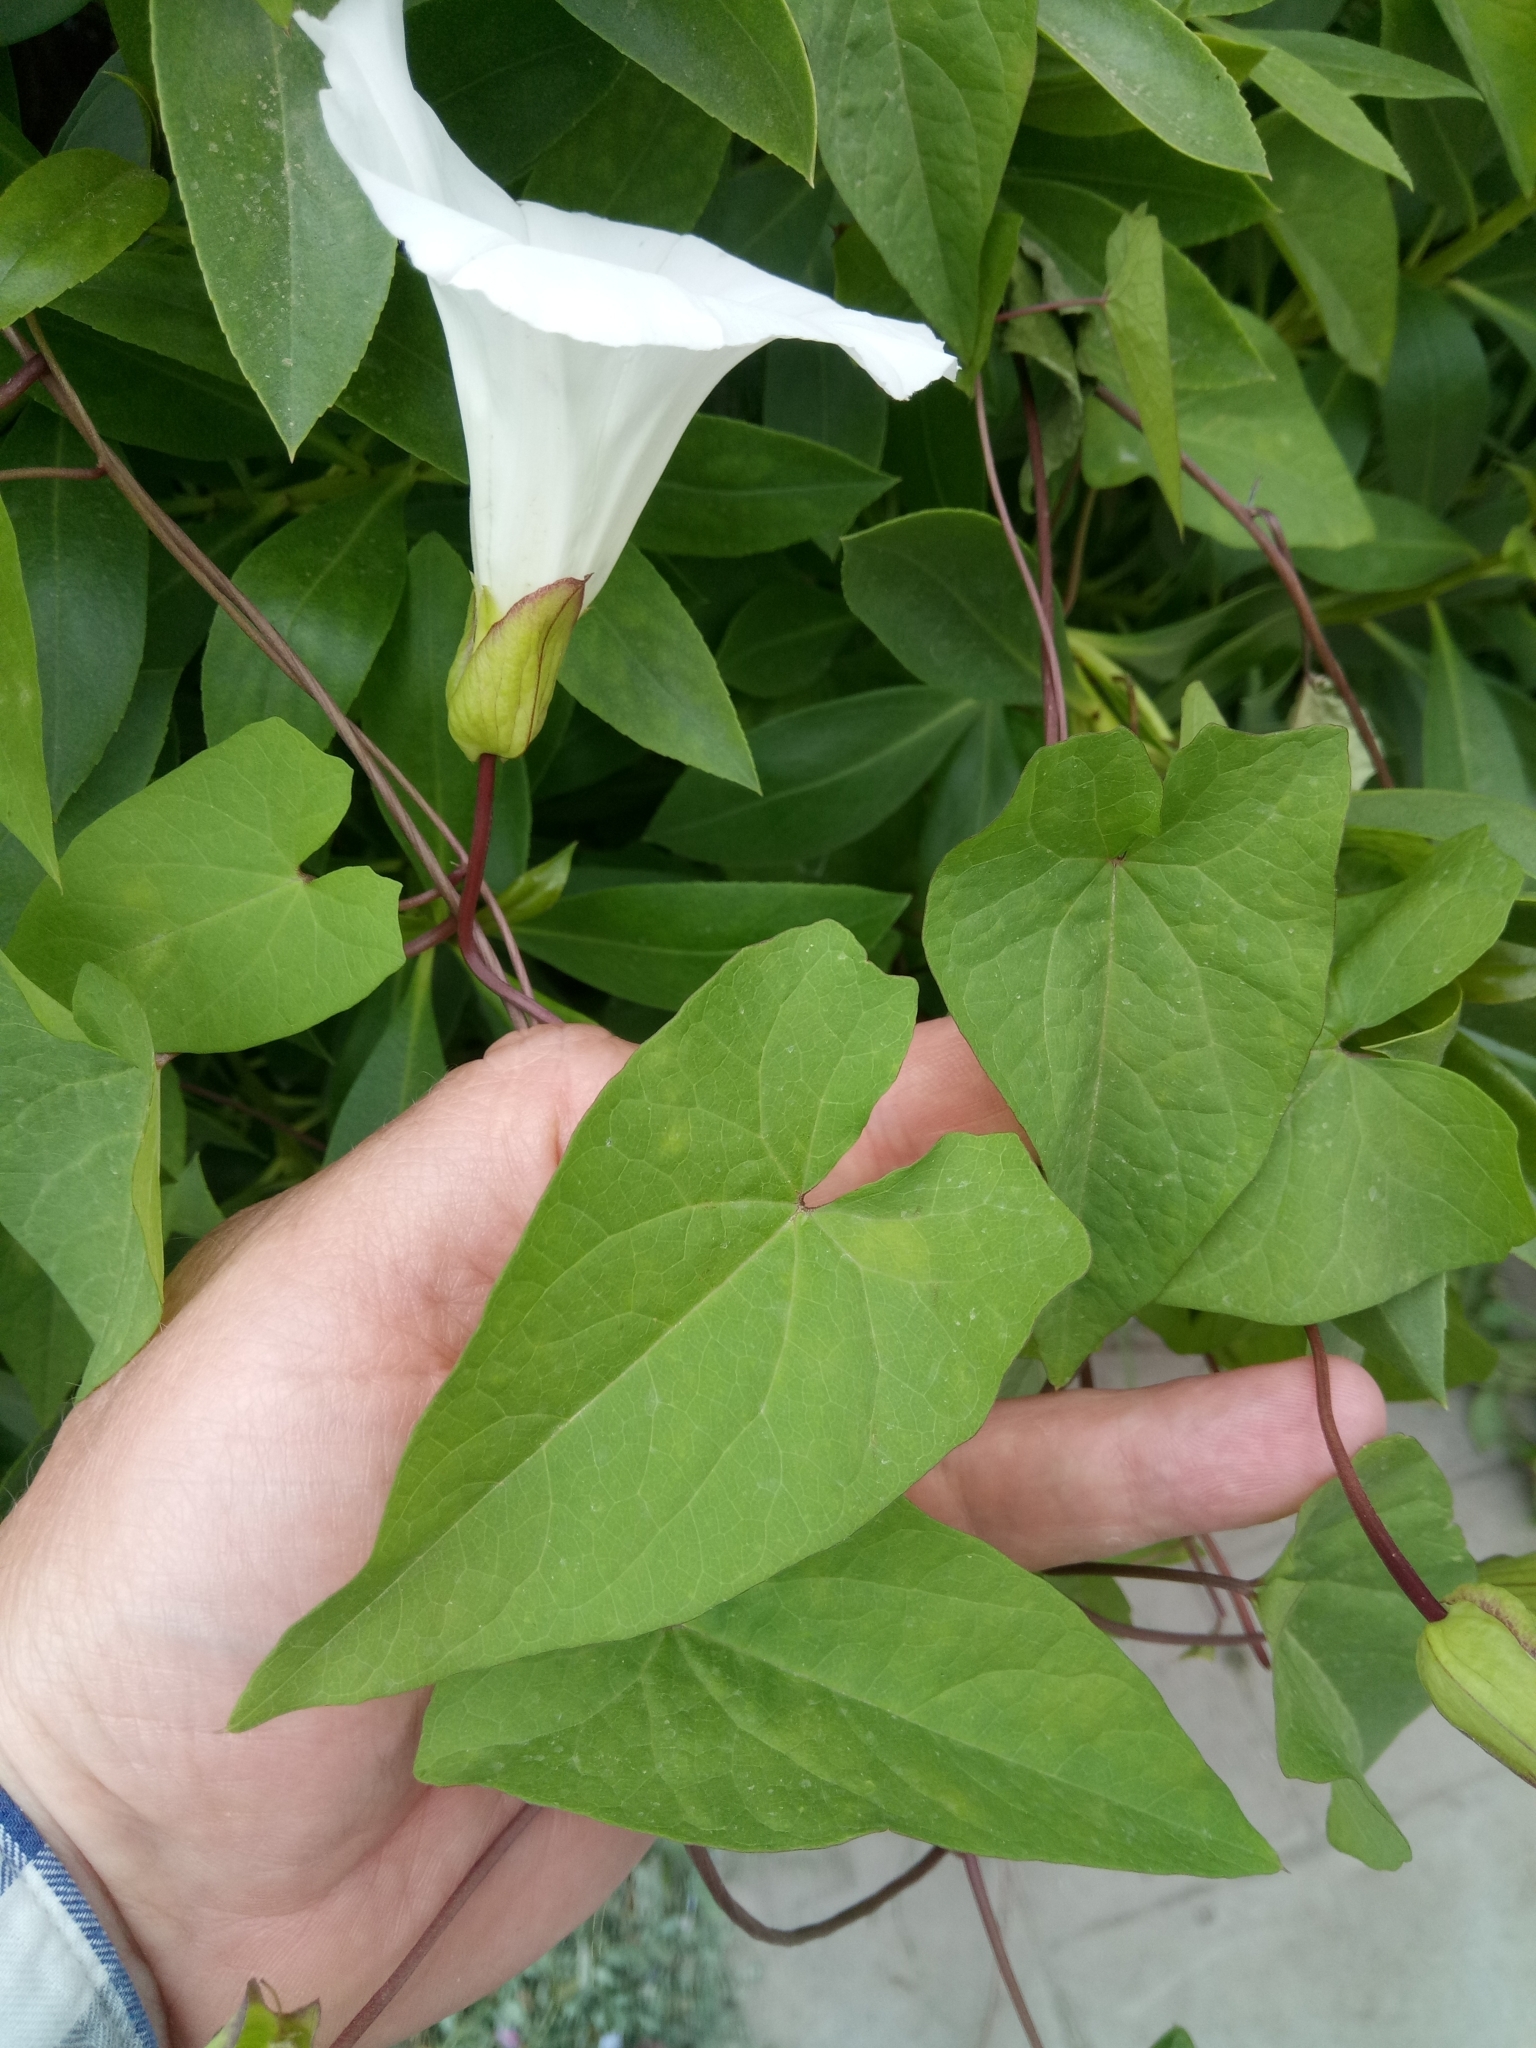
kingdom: Plantae
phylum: Tracheophyta
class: Magnoliopsida
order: Solanales
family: Convolvulaceae
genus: Calystegia
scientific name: Calystegia silvatica
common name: Large bindweed
